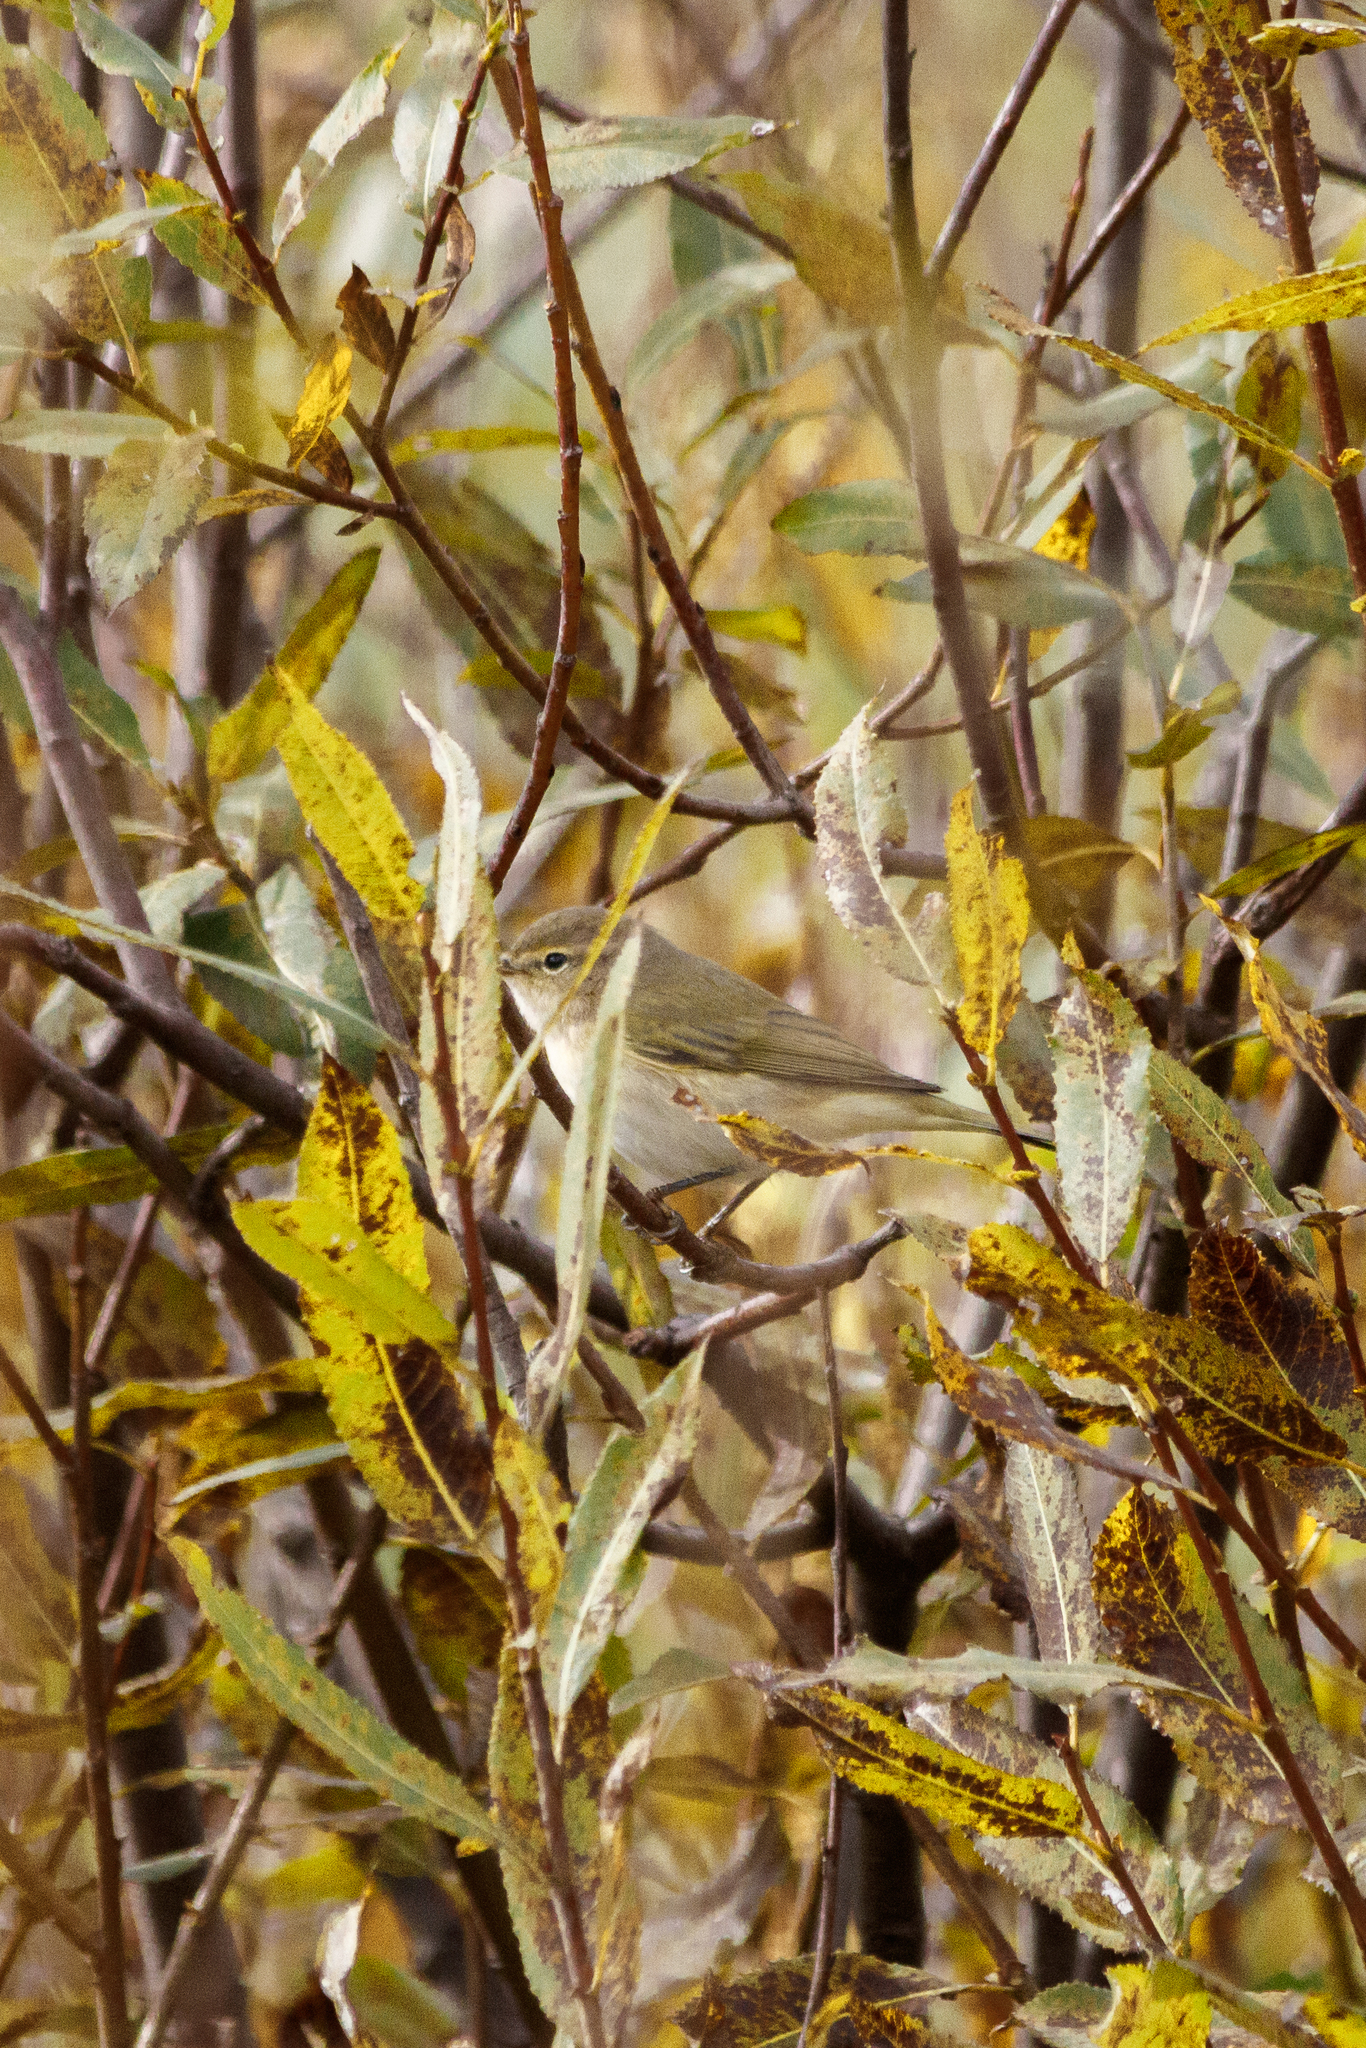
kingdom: Animalia
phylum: Chordata
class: Aves
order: Passeriformes
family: Phylloscopidae
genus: Phylloscopus
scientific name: Phylloscopus collybita
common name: Common chiffchaff
